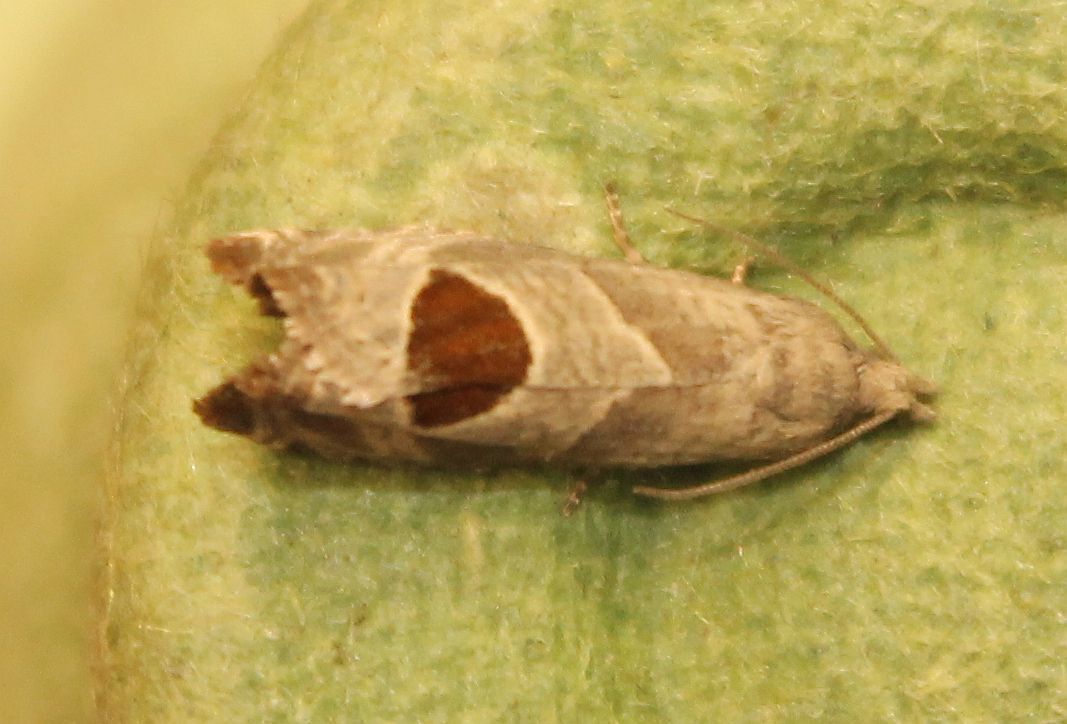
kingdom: Animalia
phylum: Arthropoda
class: Insecta
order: Lepidoptera
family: Tortricidae
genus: Notocelia
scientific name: Notocelia uddmanniana
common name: Bramble shoot moth
